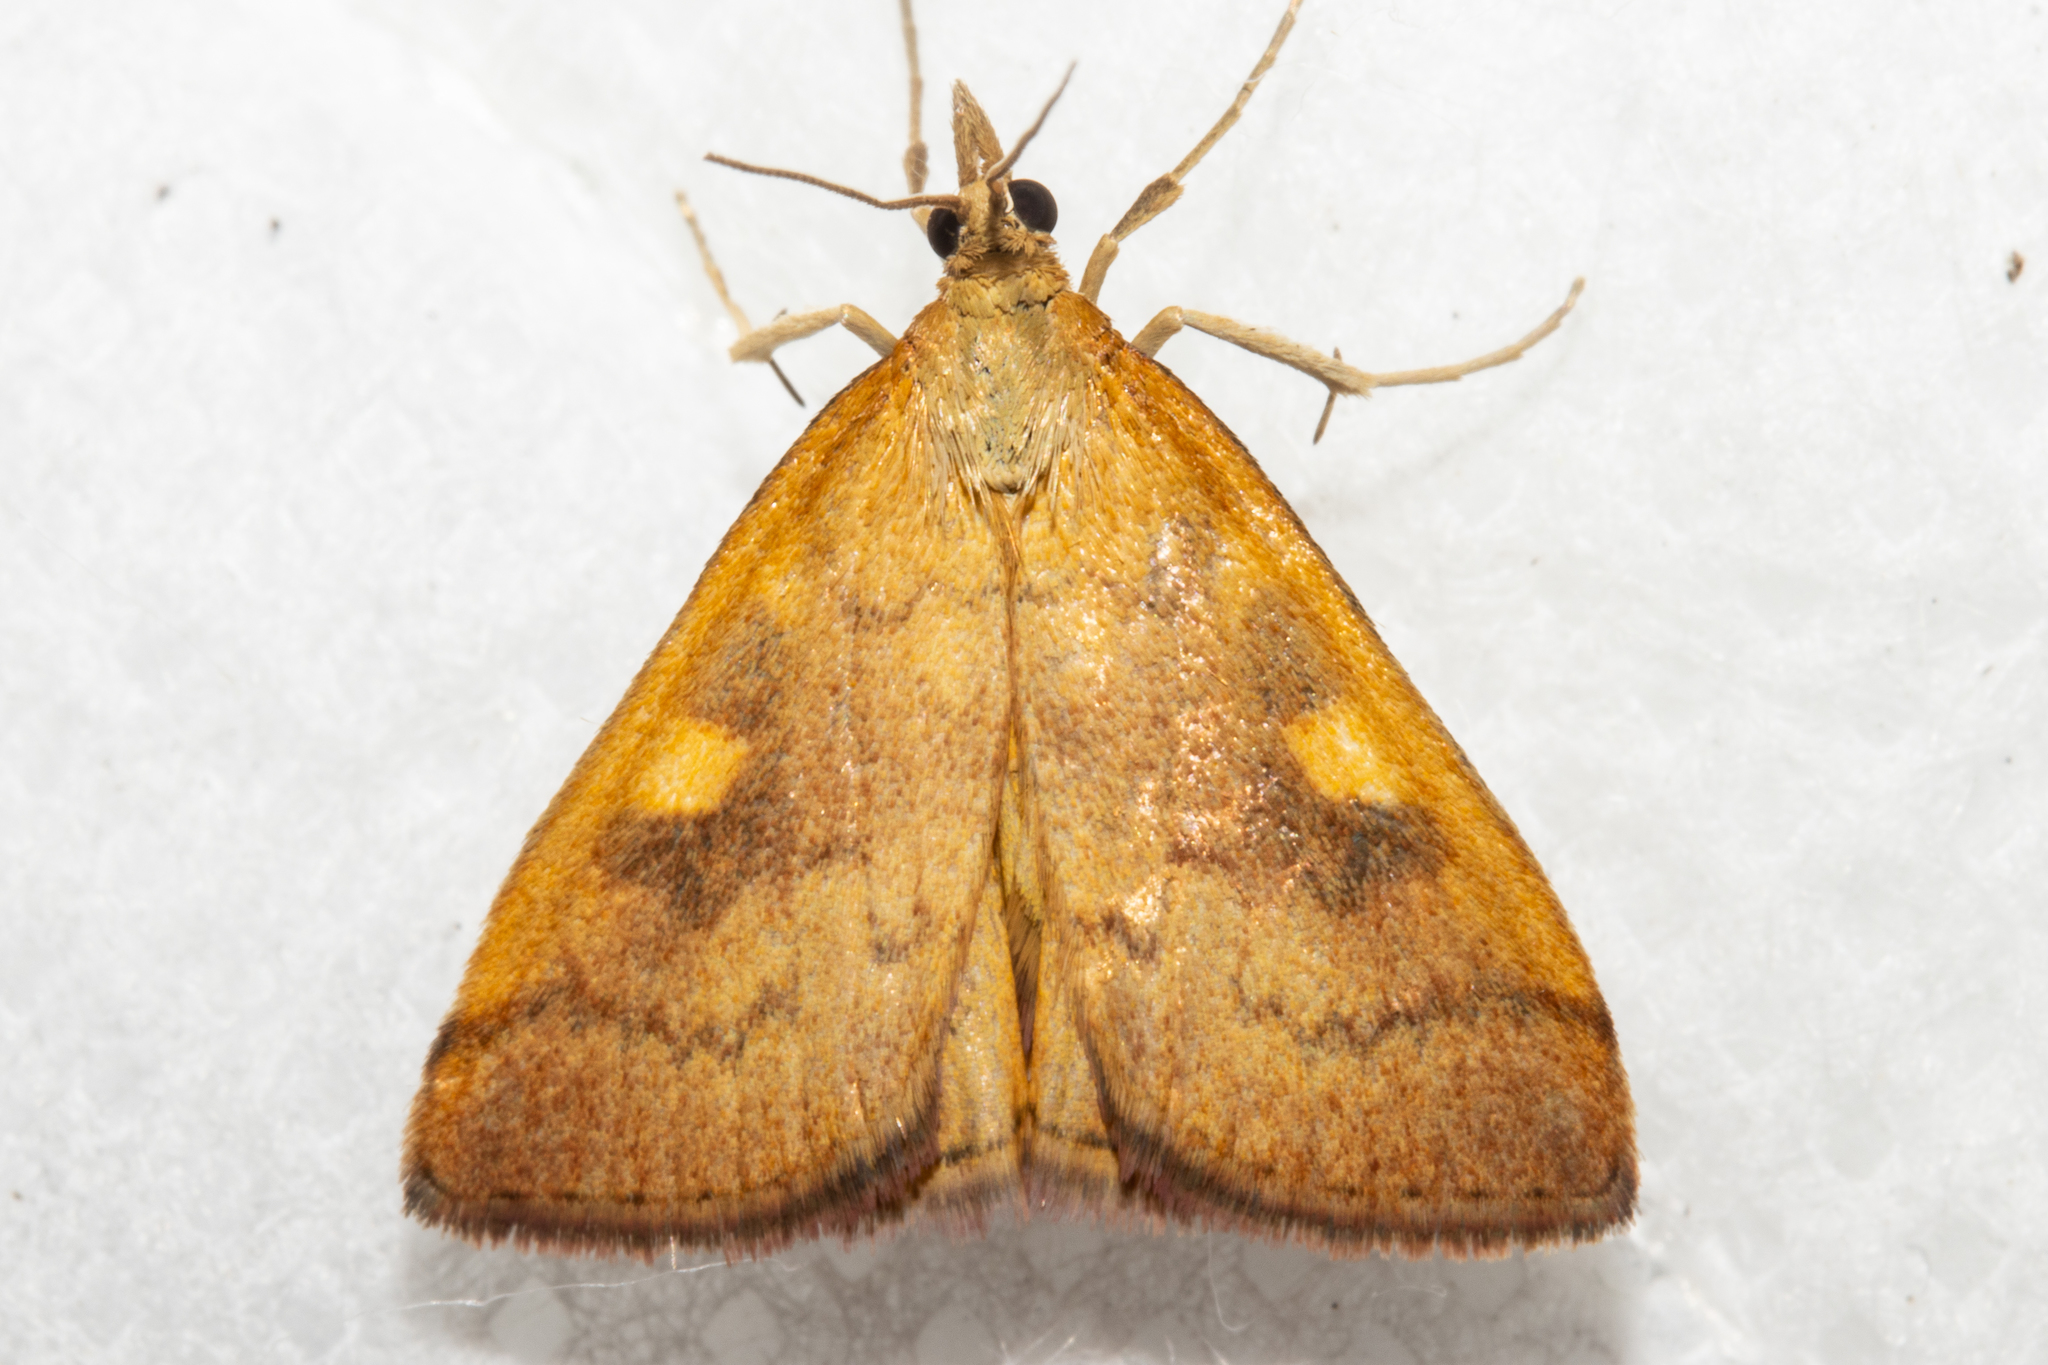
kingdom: Animalia
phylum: Arthropoda
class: Insecta
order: Lepidoptera
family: Crambidae
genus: Udea
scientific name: Udea Mnesictena flavidalis
